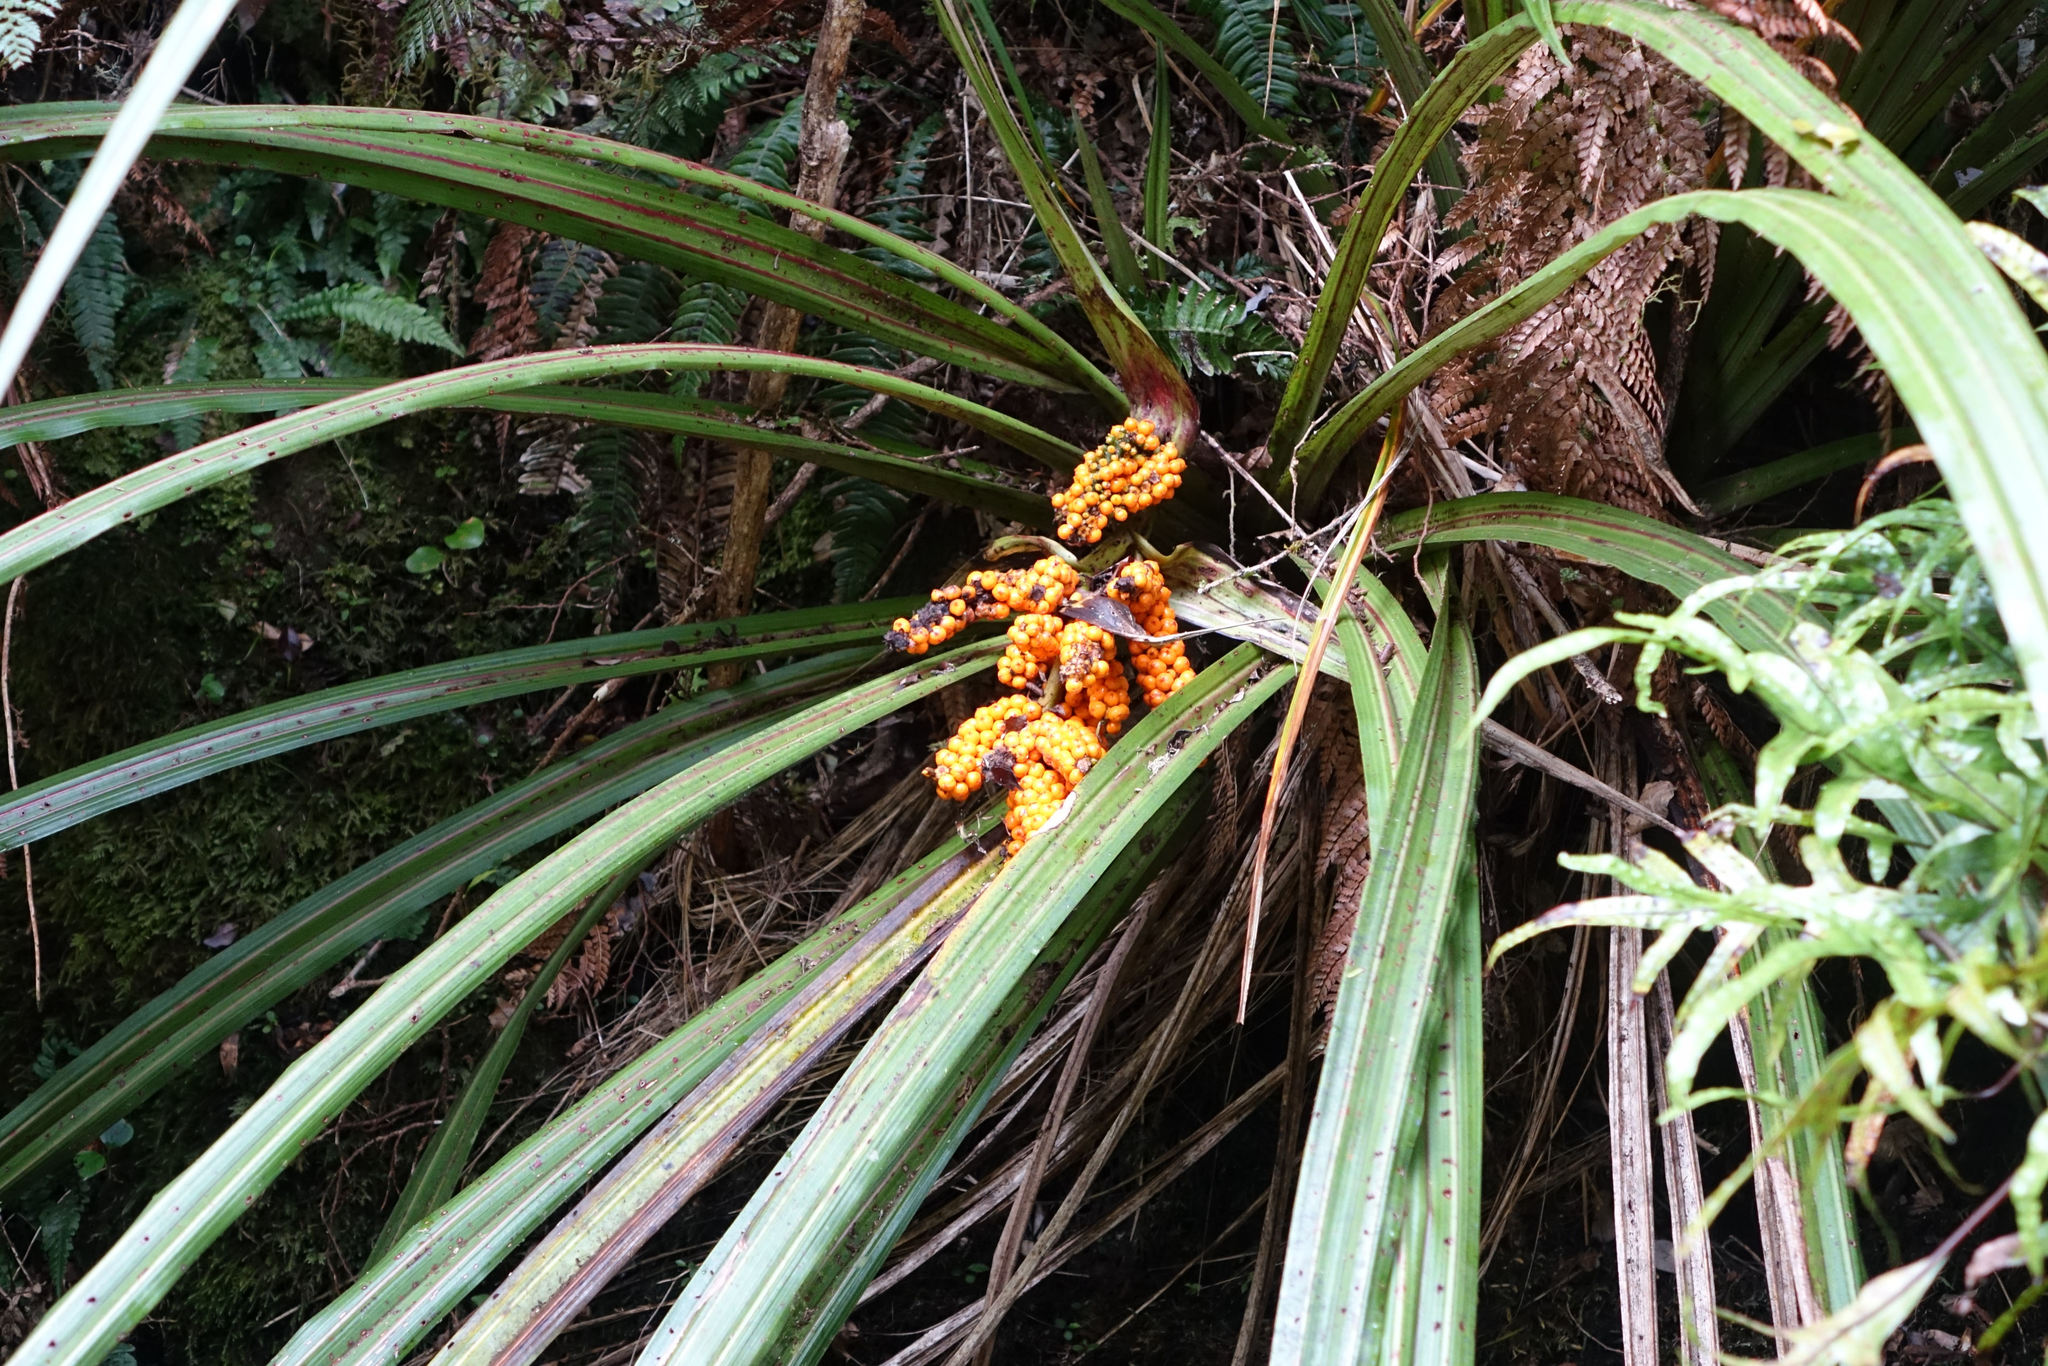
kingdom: Plantae
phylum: Tracheophyta
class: Liliopsida
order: Asparagales
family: Asteliaceae
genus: Astelia
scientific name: Astelia fragrans
